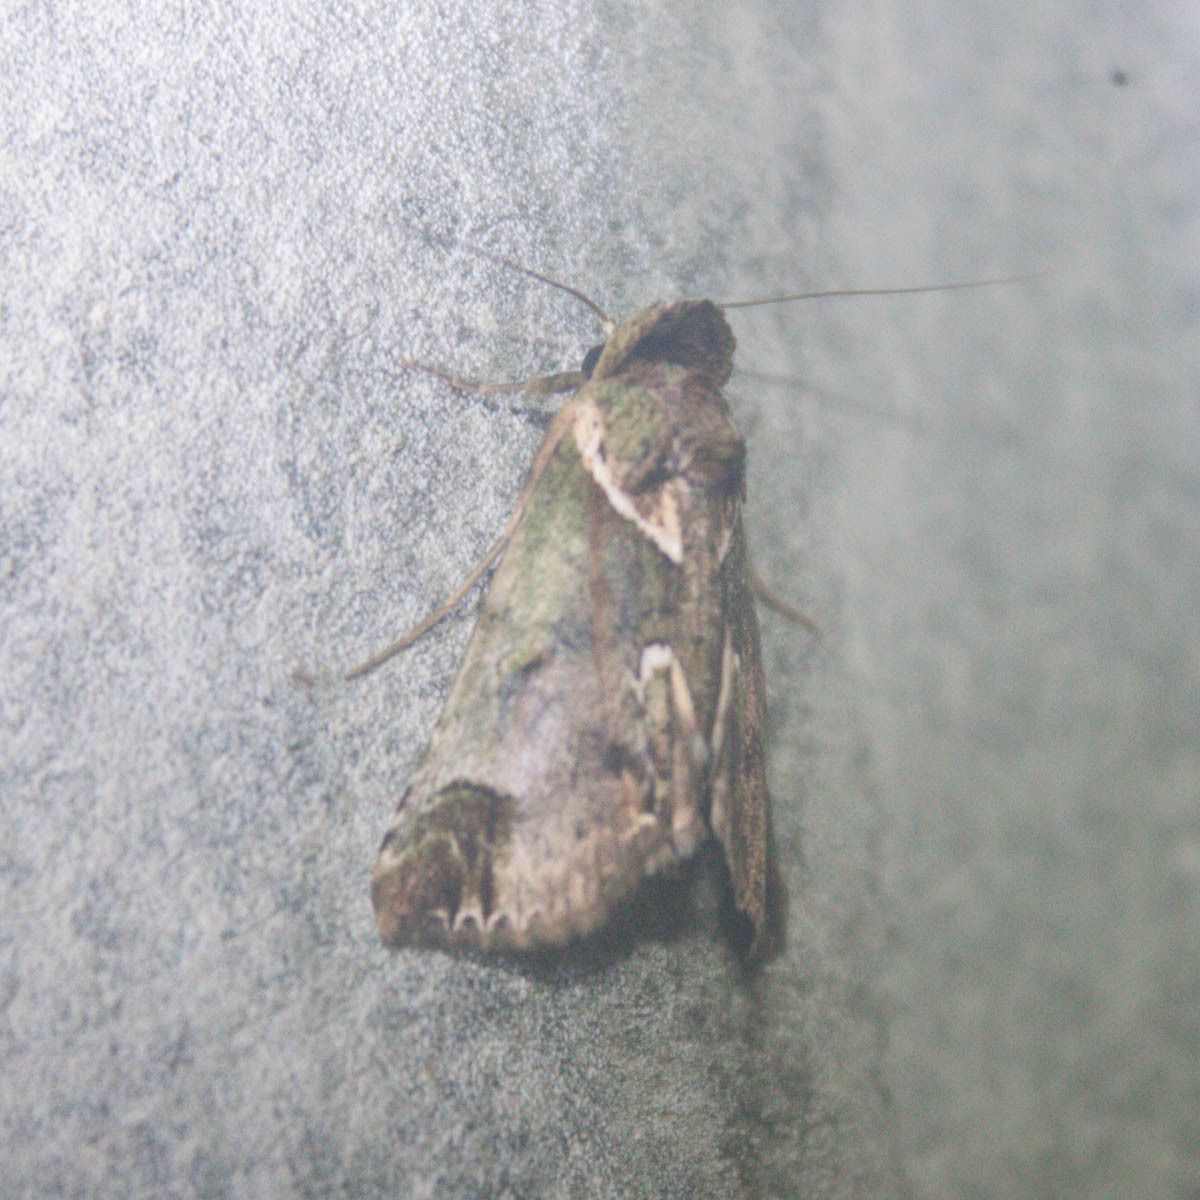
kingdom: Animalia
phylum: Arthropoda
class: Insecta
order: Lepidoptera
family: Nolidae
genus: Risoba
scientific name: Risoba basalis
